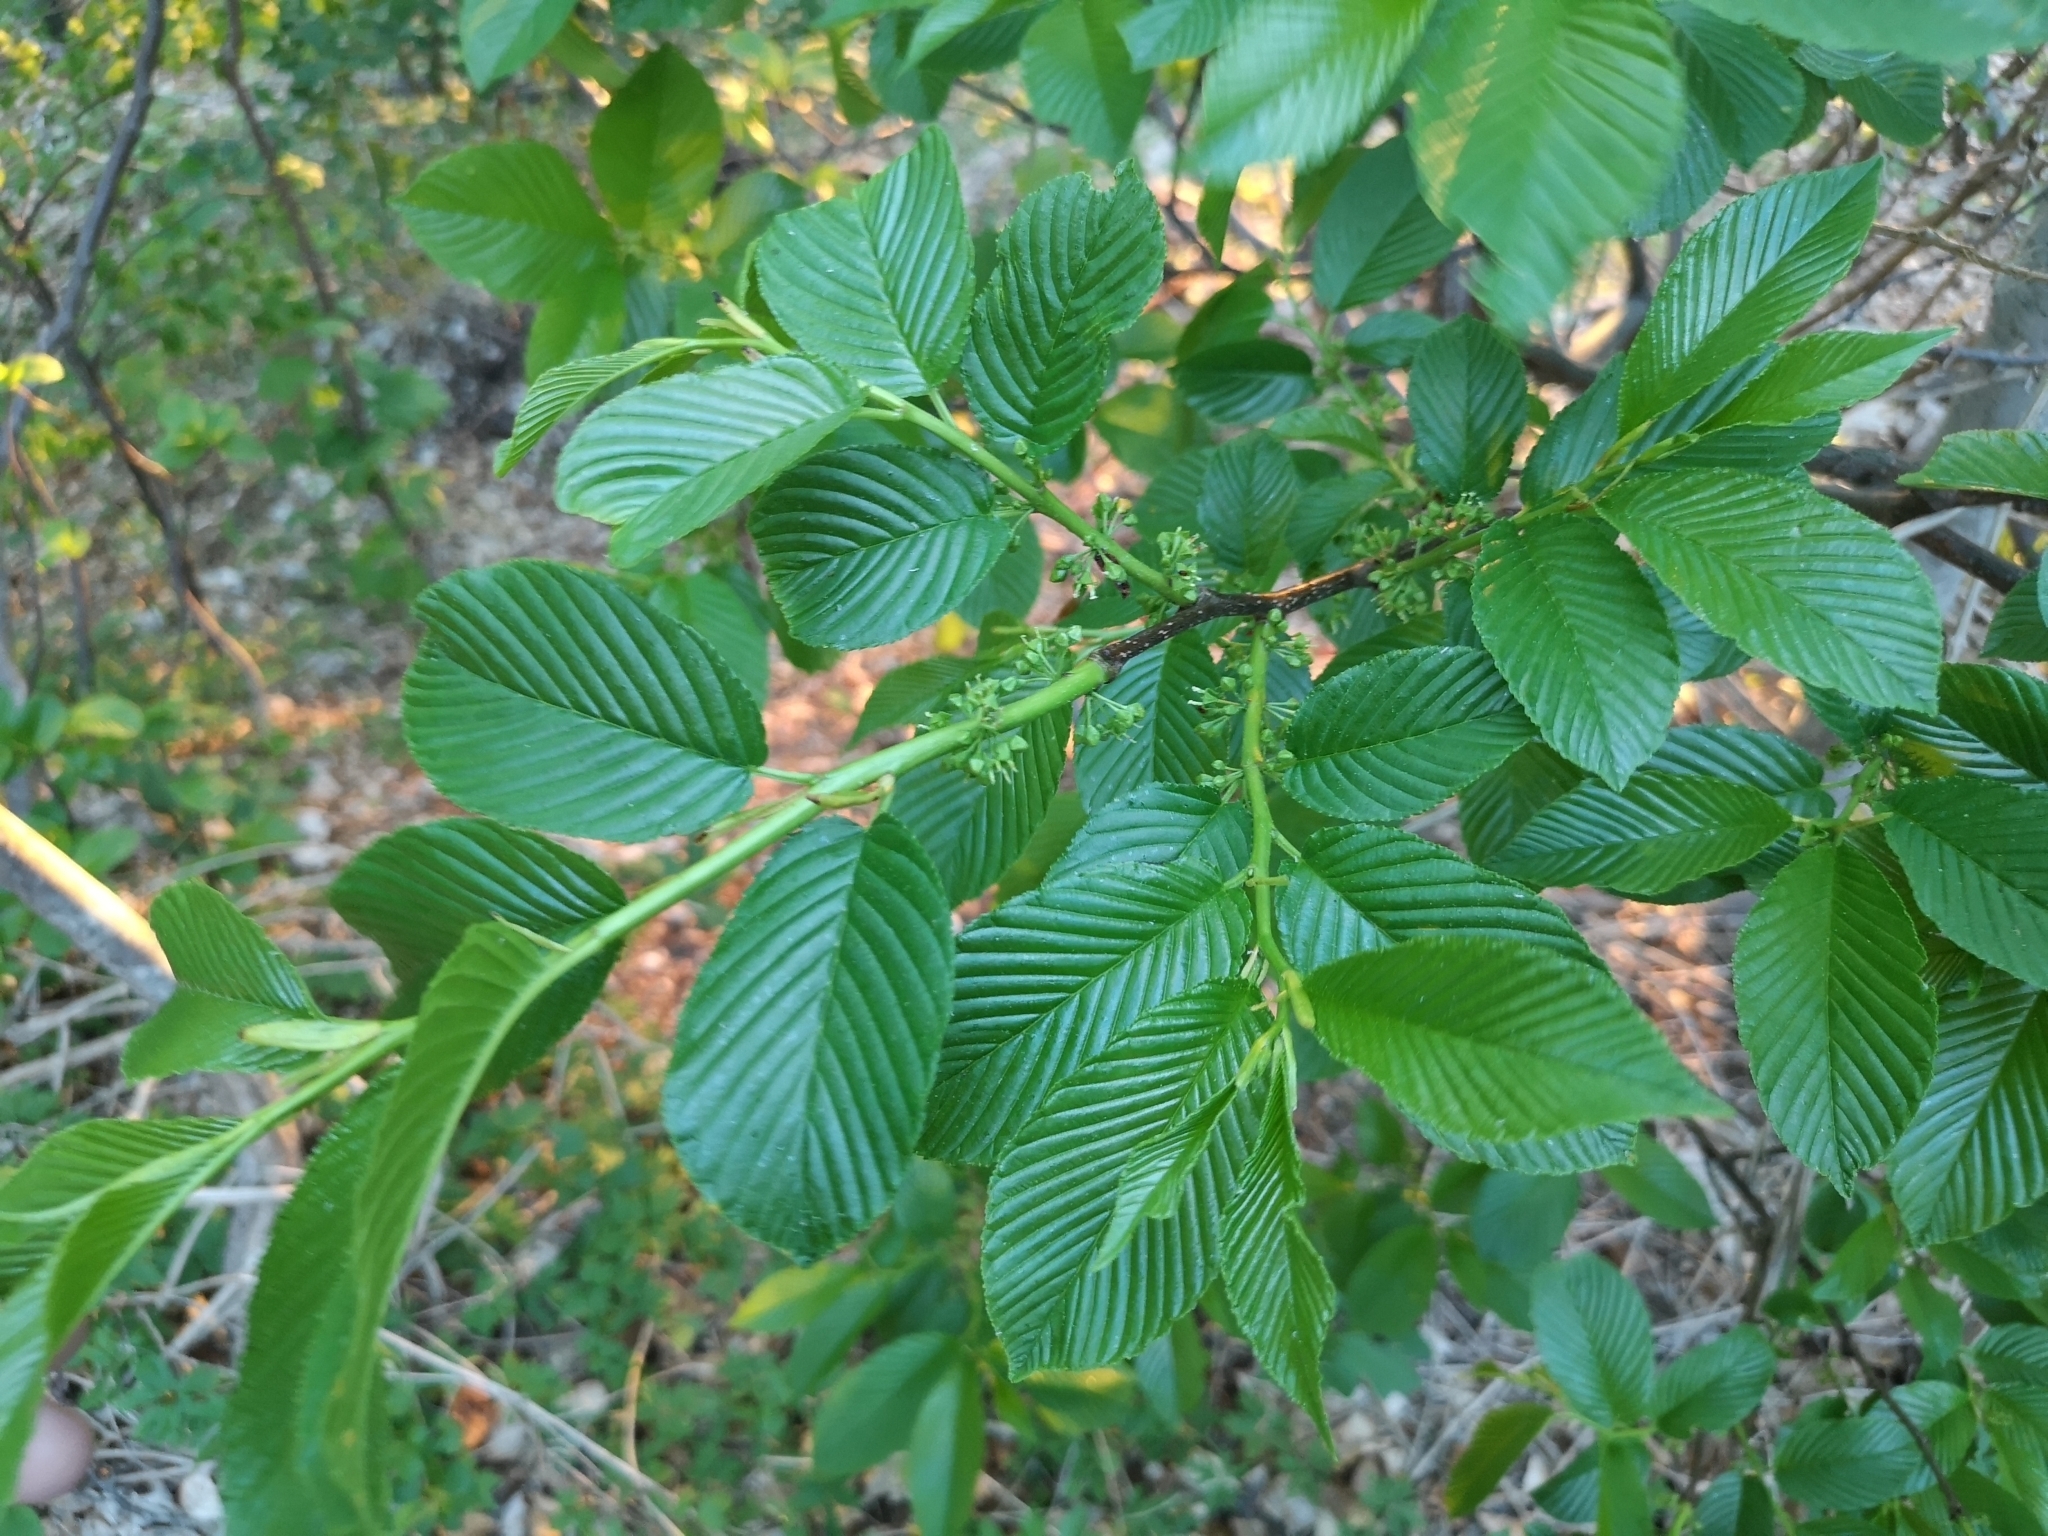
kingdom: Plantae
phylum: Tracheophyta
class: Magnoliopsida
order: Rosales
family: Rhamnaceae
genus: Atadinus
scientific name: Atadinus fallax
